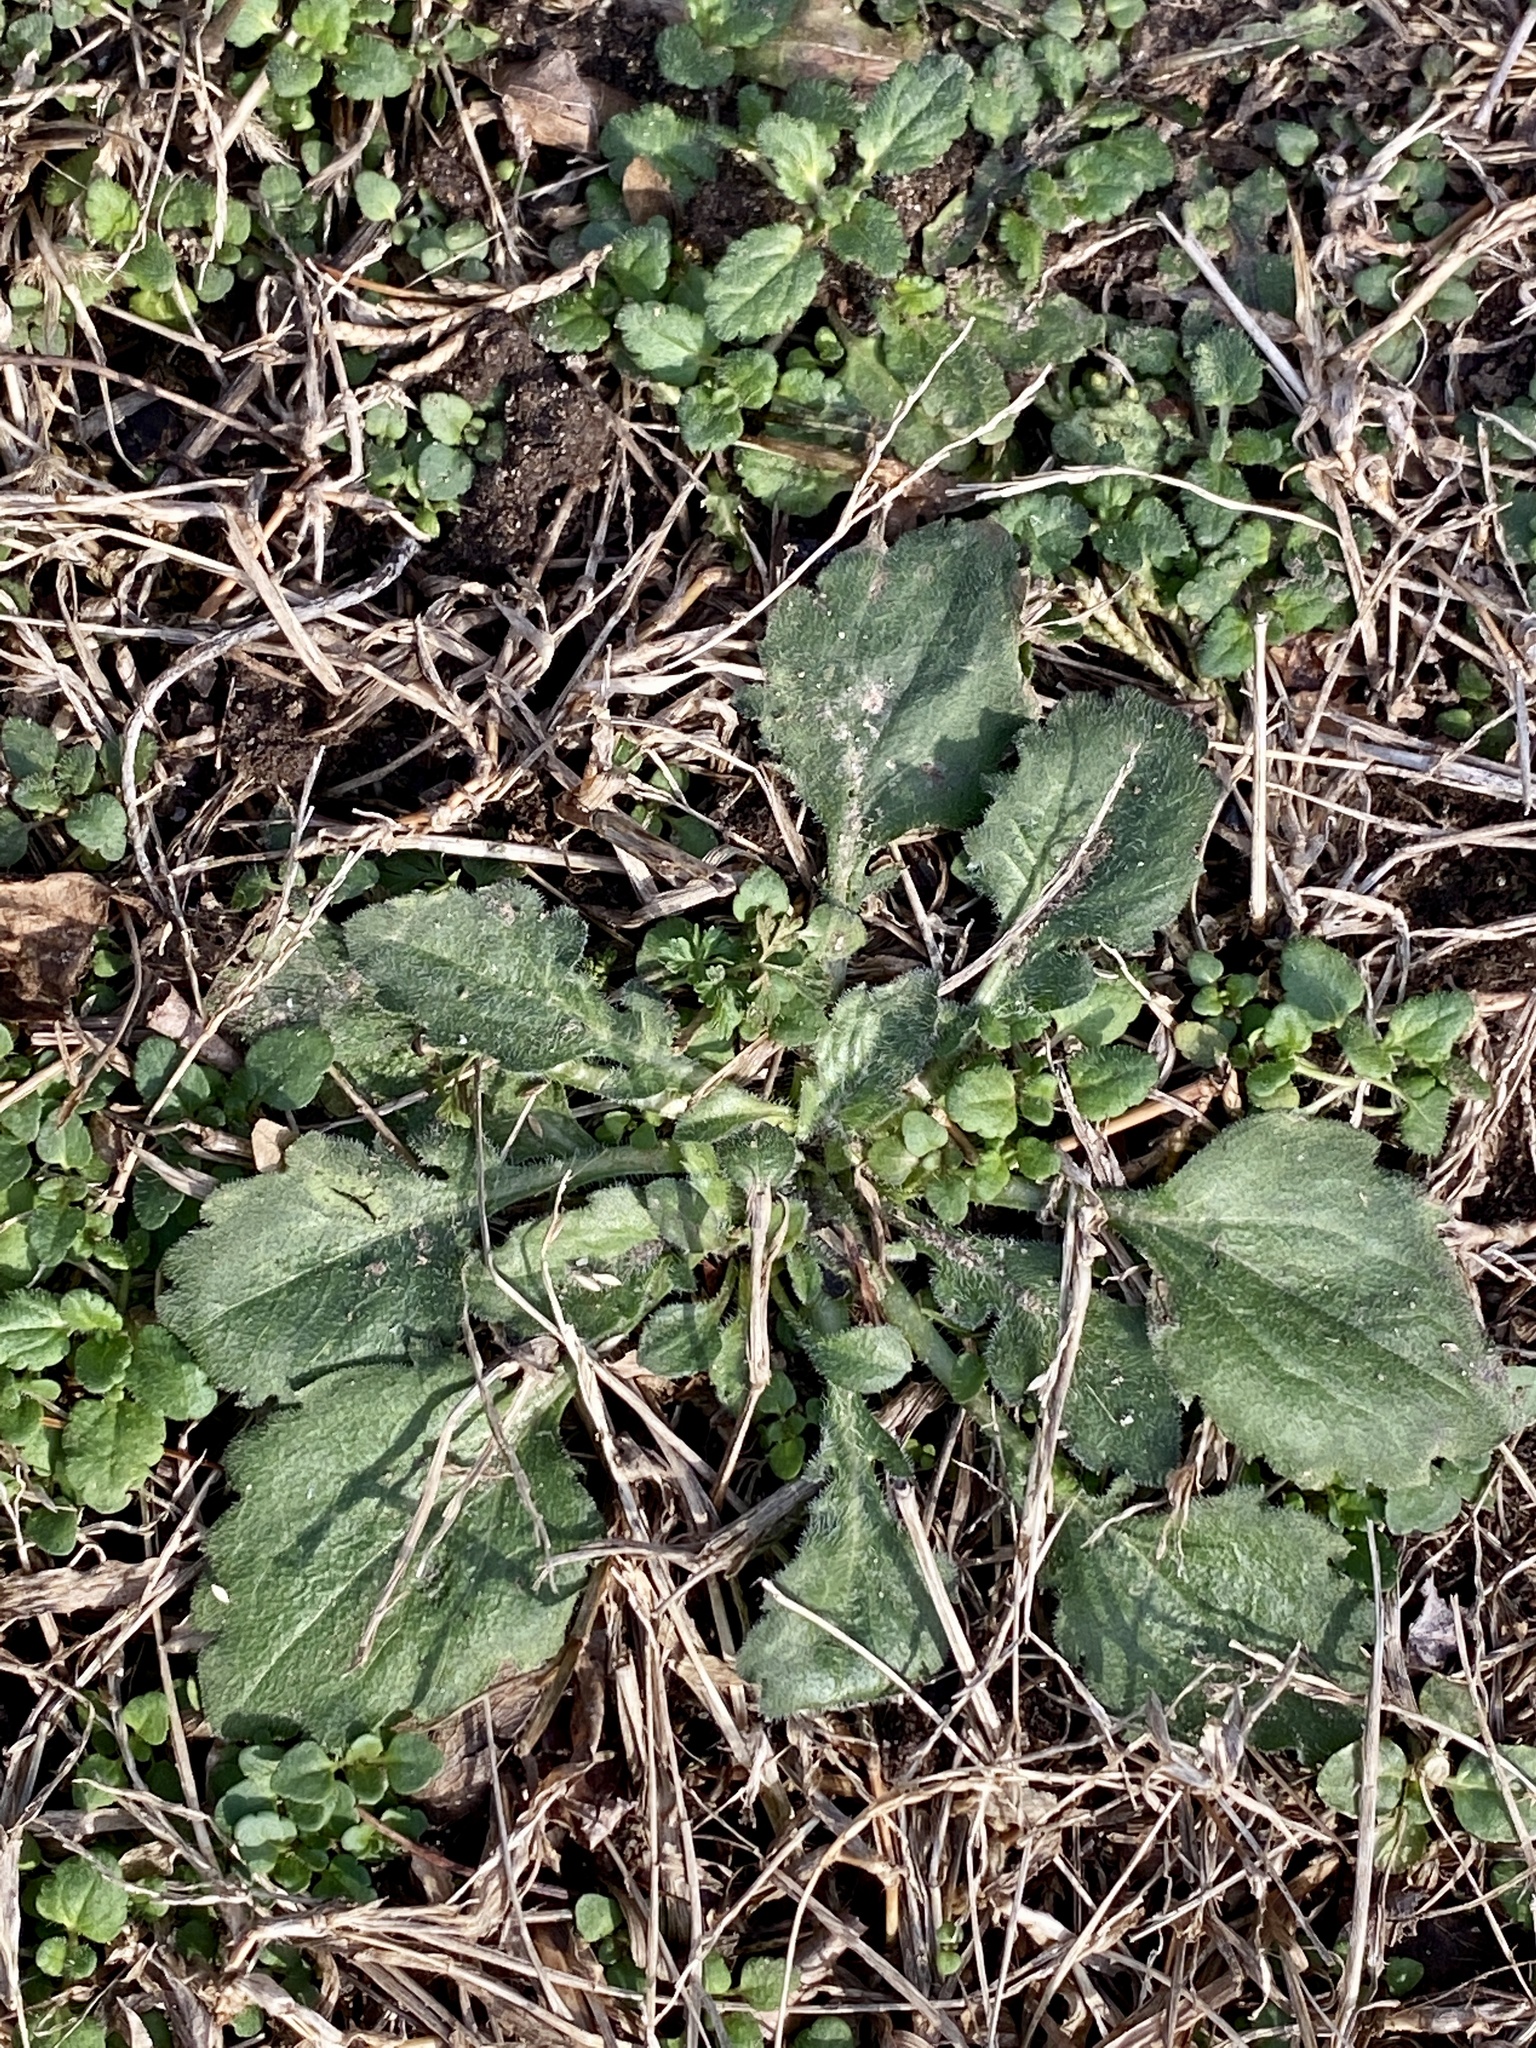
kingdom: Plantae
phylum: Tracheophyta
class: Magnoliopsida
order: Asterales
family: Asteraceae
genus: Erigeron
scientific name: Erigeron annuus
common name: Tall fleabane
